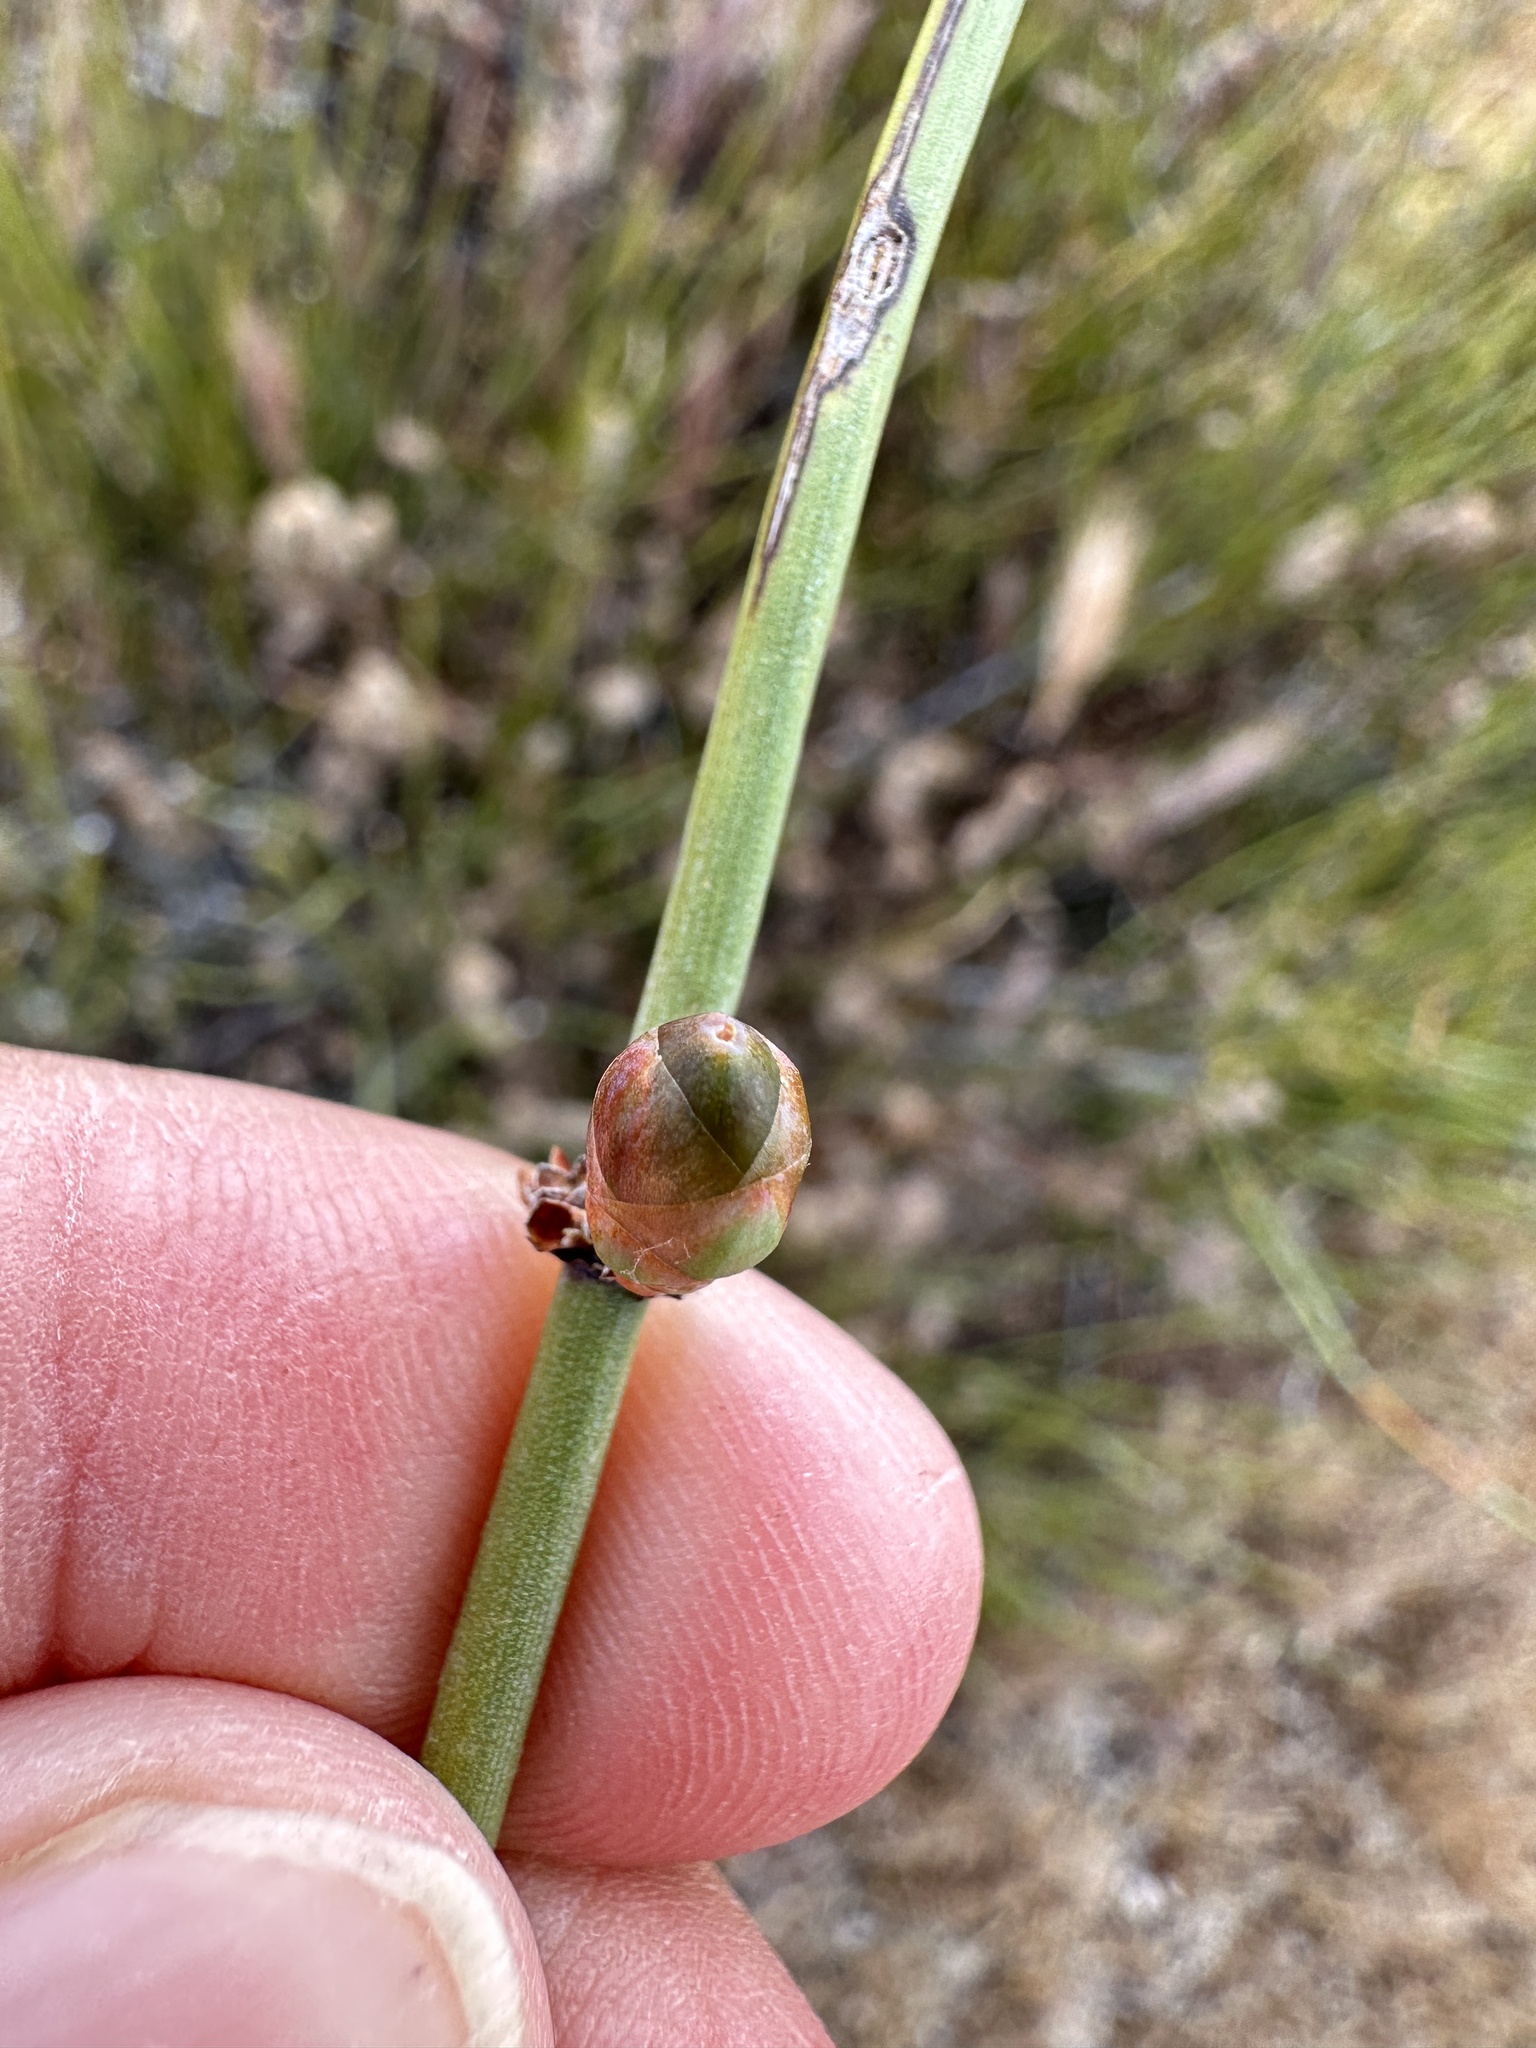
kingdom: Plantae
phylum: Tracheophyta
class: Gnetopsida
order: Ephedrales
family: Ephedraceae
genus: Ephedra
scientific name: Ephedra californica
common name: California ephedra
